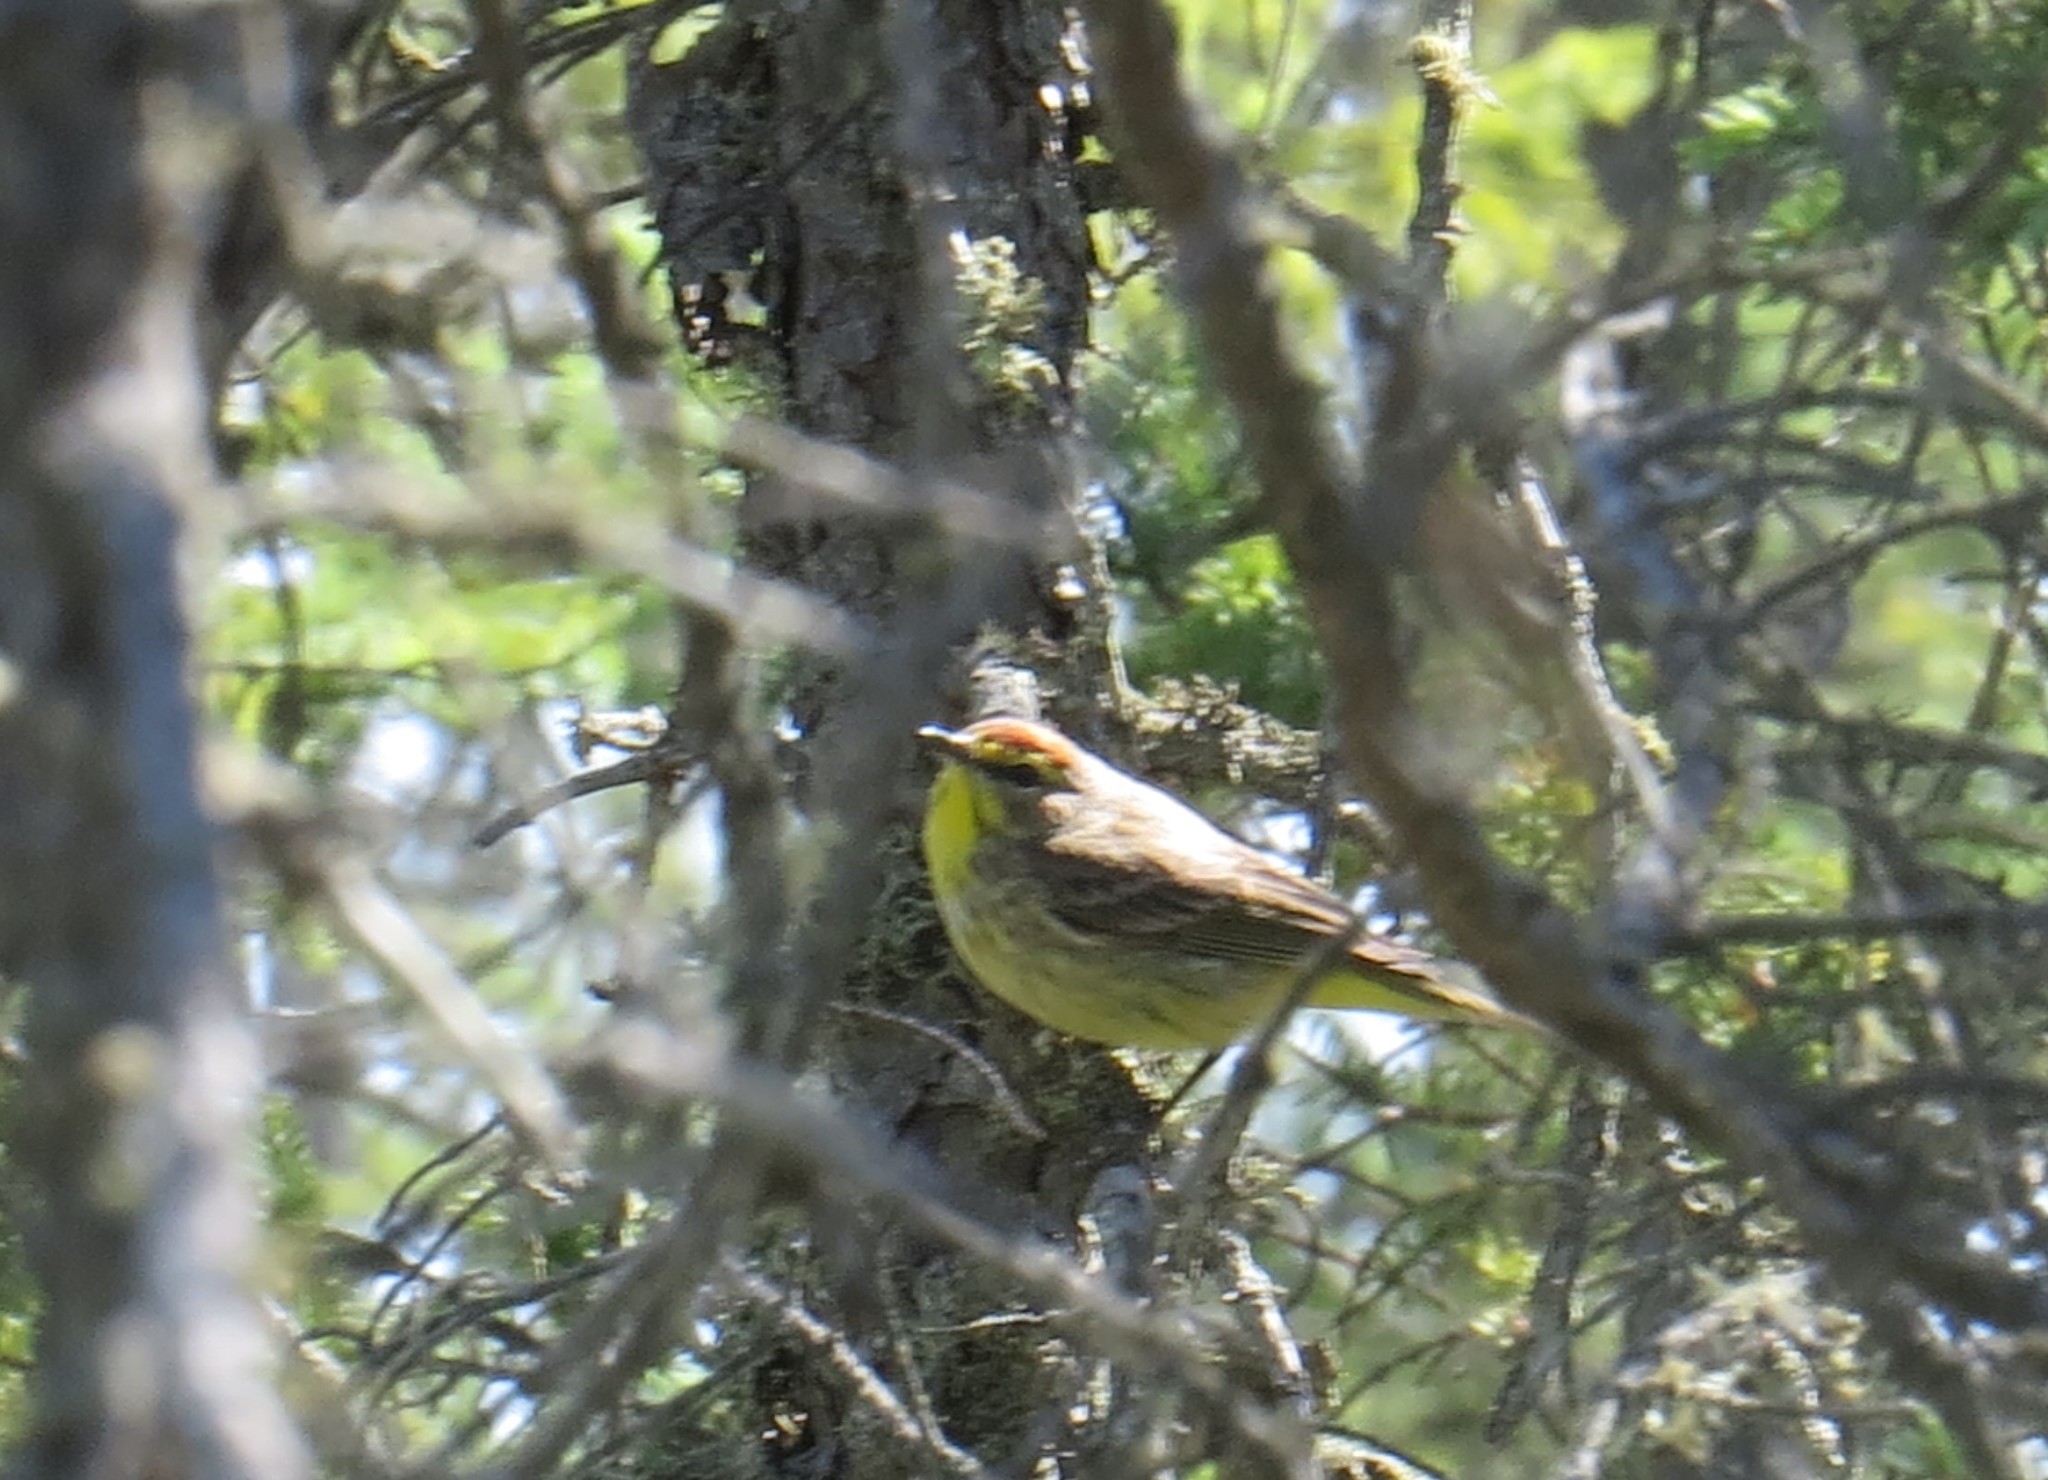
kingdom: Animalia
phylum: Chordata
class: Aves
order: Passeriformes
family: Parulidae
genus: Setophaga
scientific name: Setophaga palmarum
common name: Palm warbler
